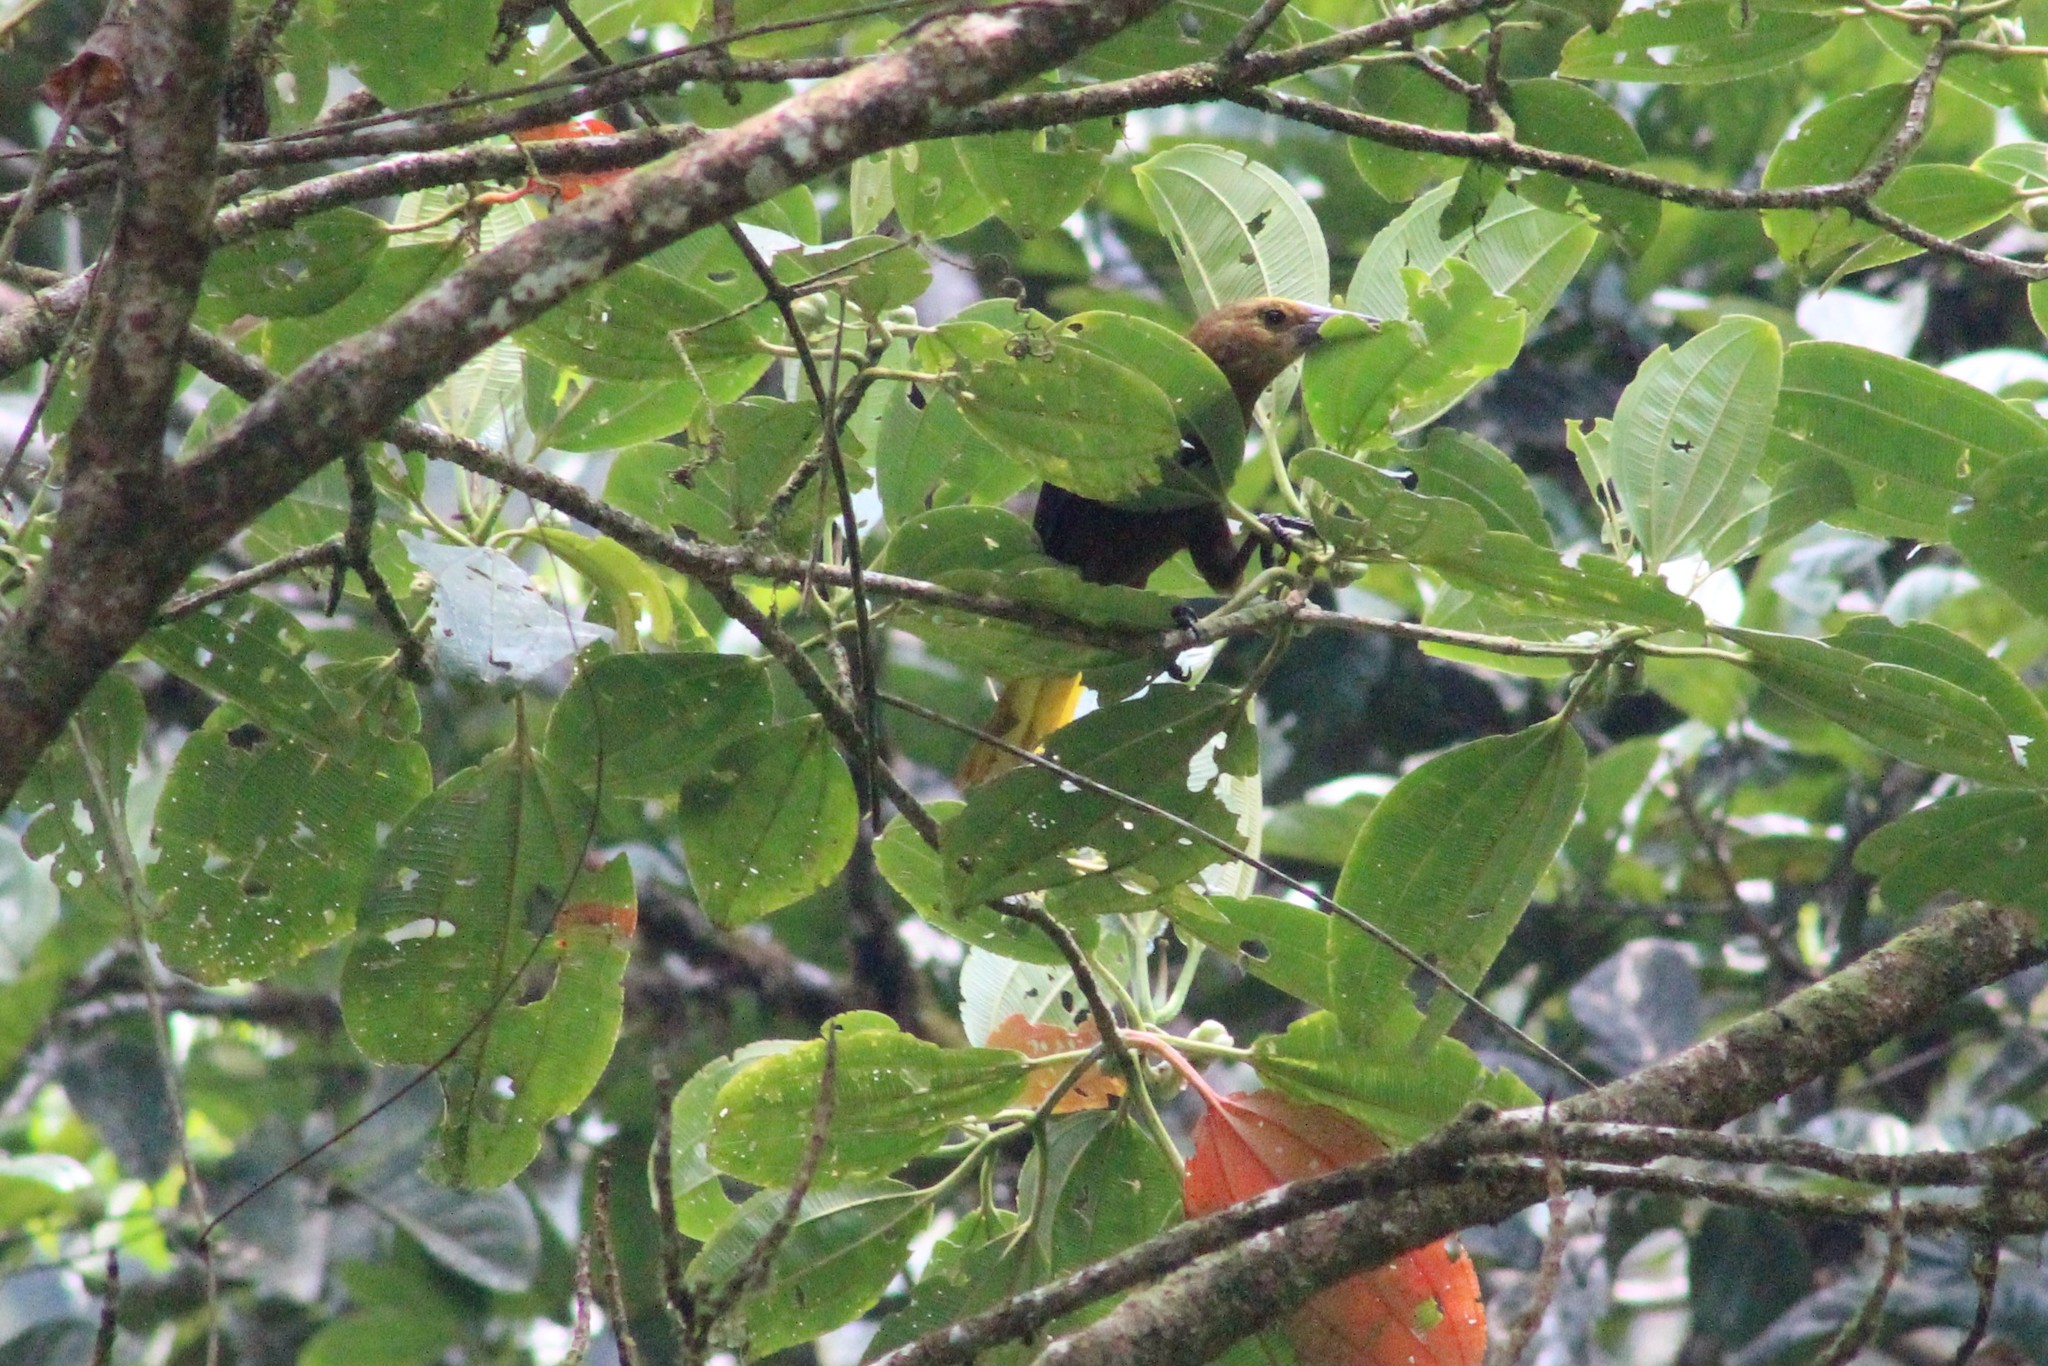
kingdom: Animalia
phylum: Chordata
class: Aves
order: Passeriformes
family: Icteridae
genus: Psarocolius
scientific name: Psarocolius angustifrons
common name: Russet-backed oropendola
